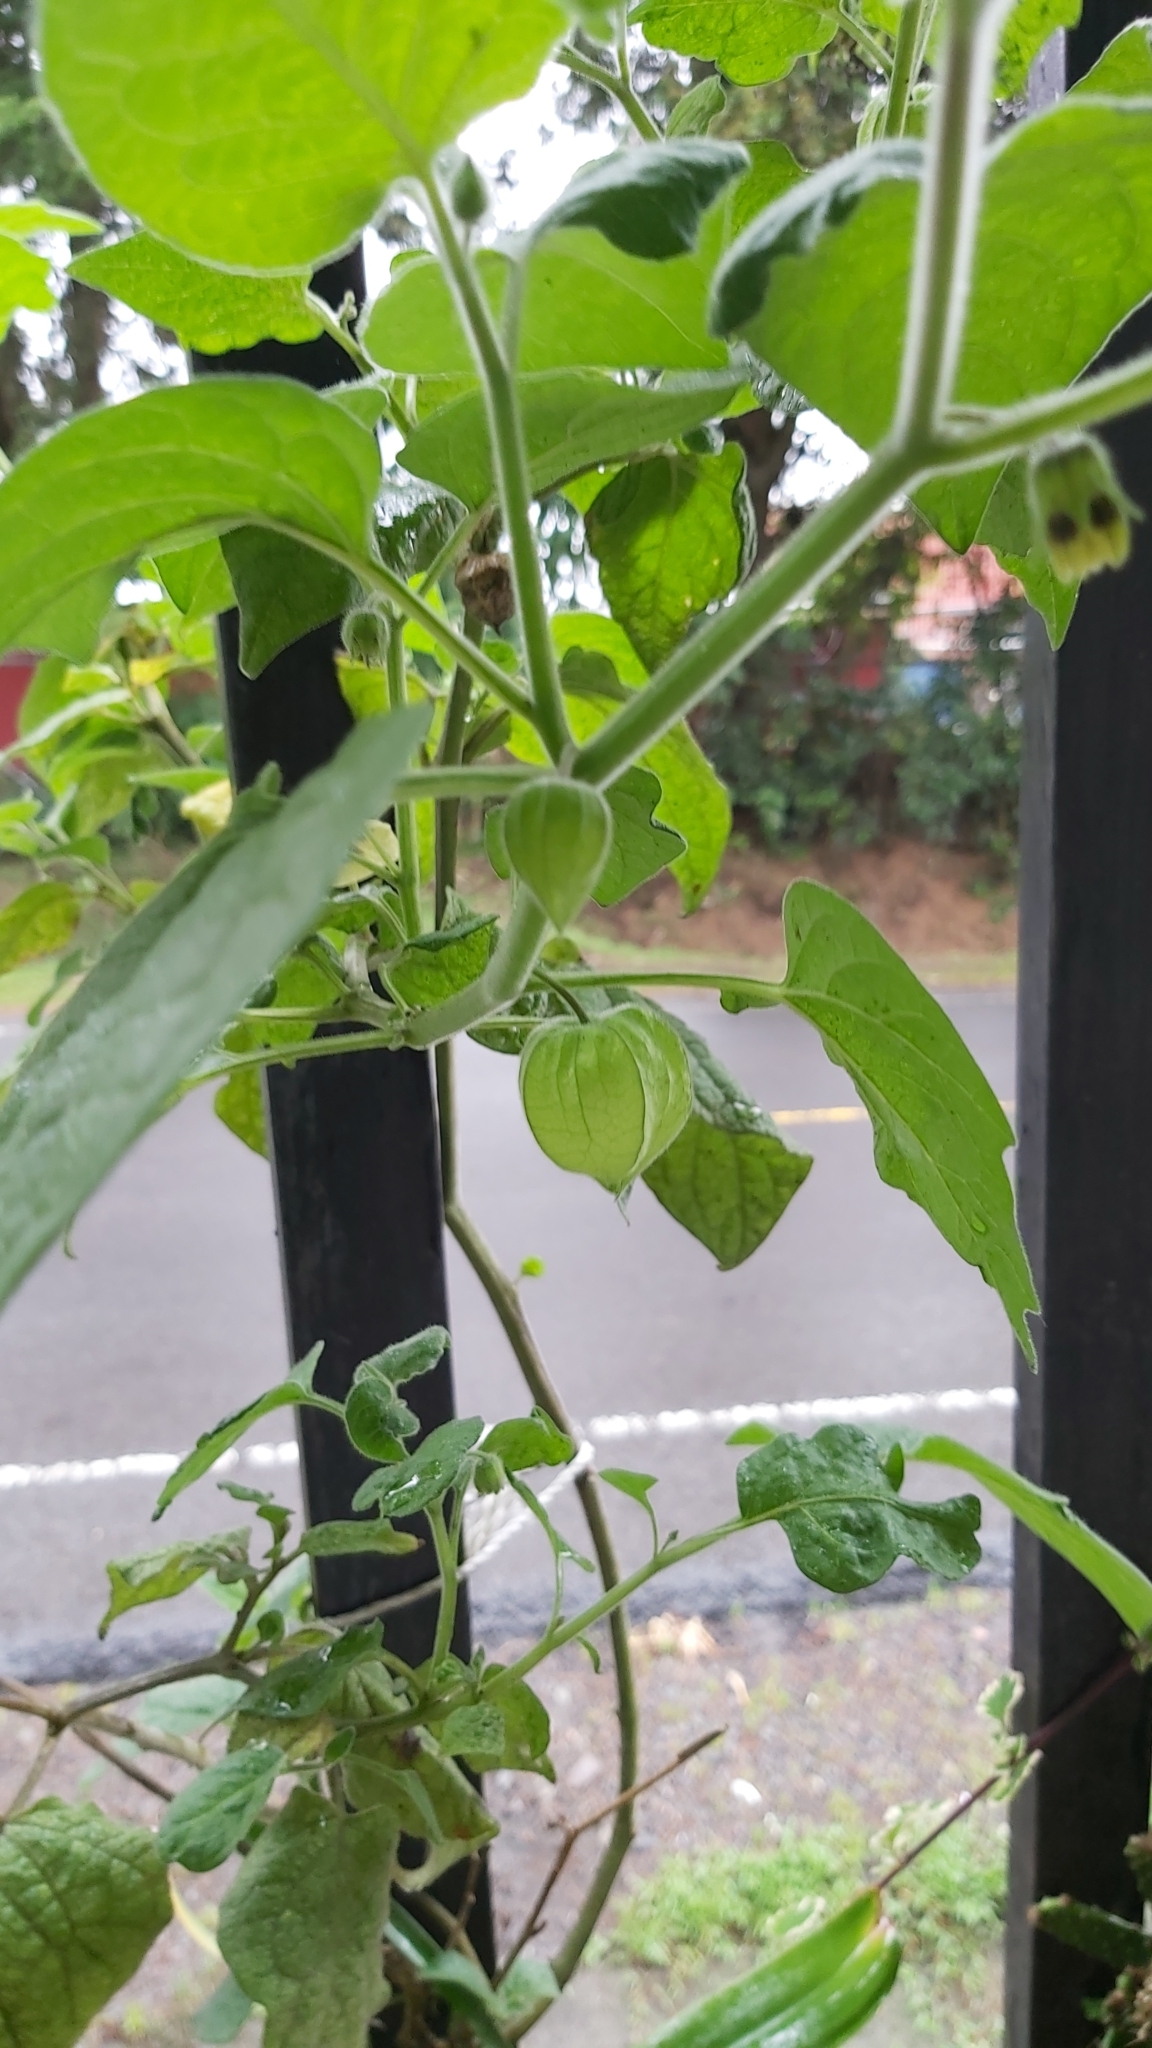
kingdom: Plantae
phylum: Tracheophyta
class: Magnoliopsida
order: Solanales
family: Solanaceae
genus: Physalis
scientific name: Physalis peruviana
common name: Cape-gooseberry
